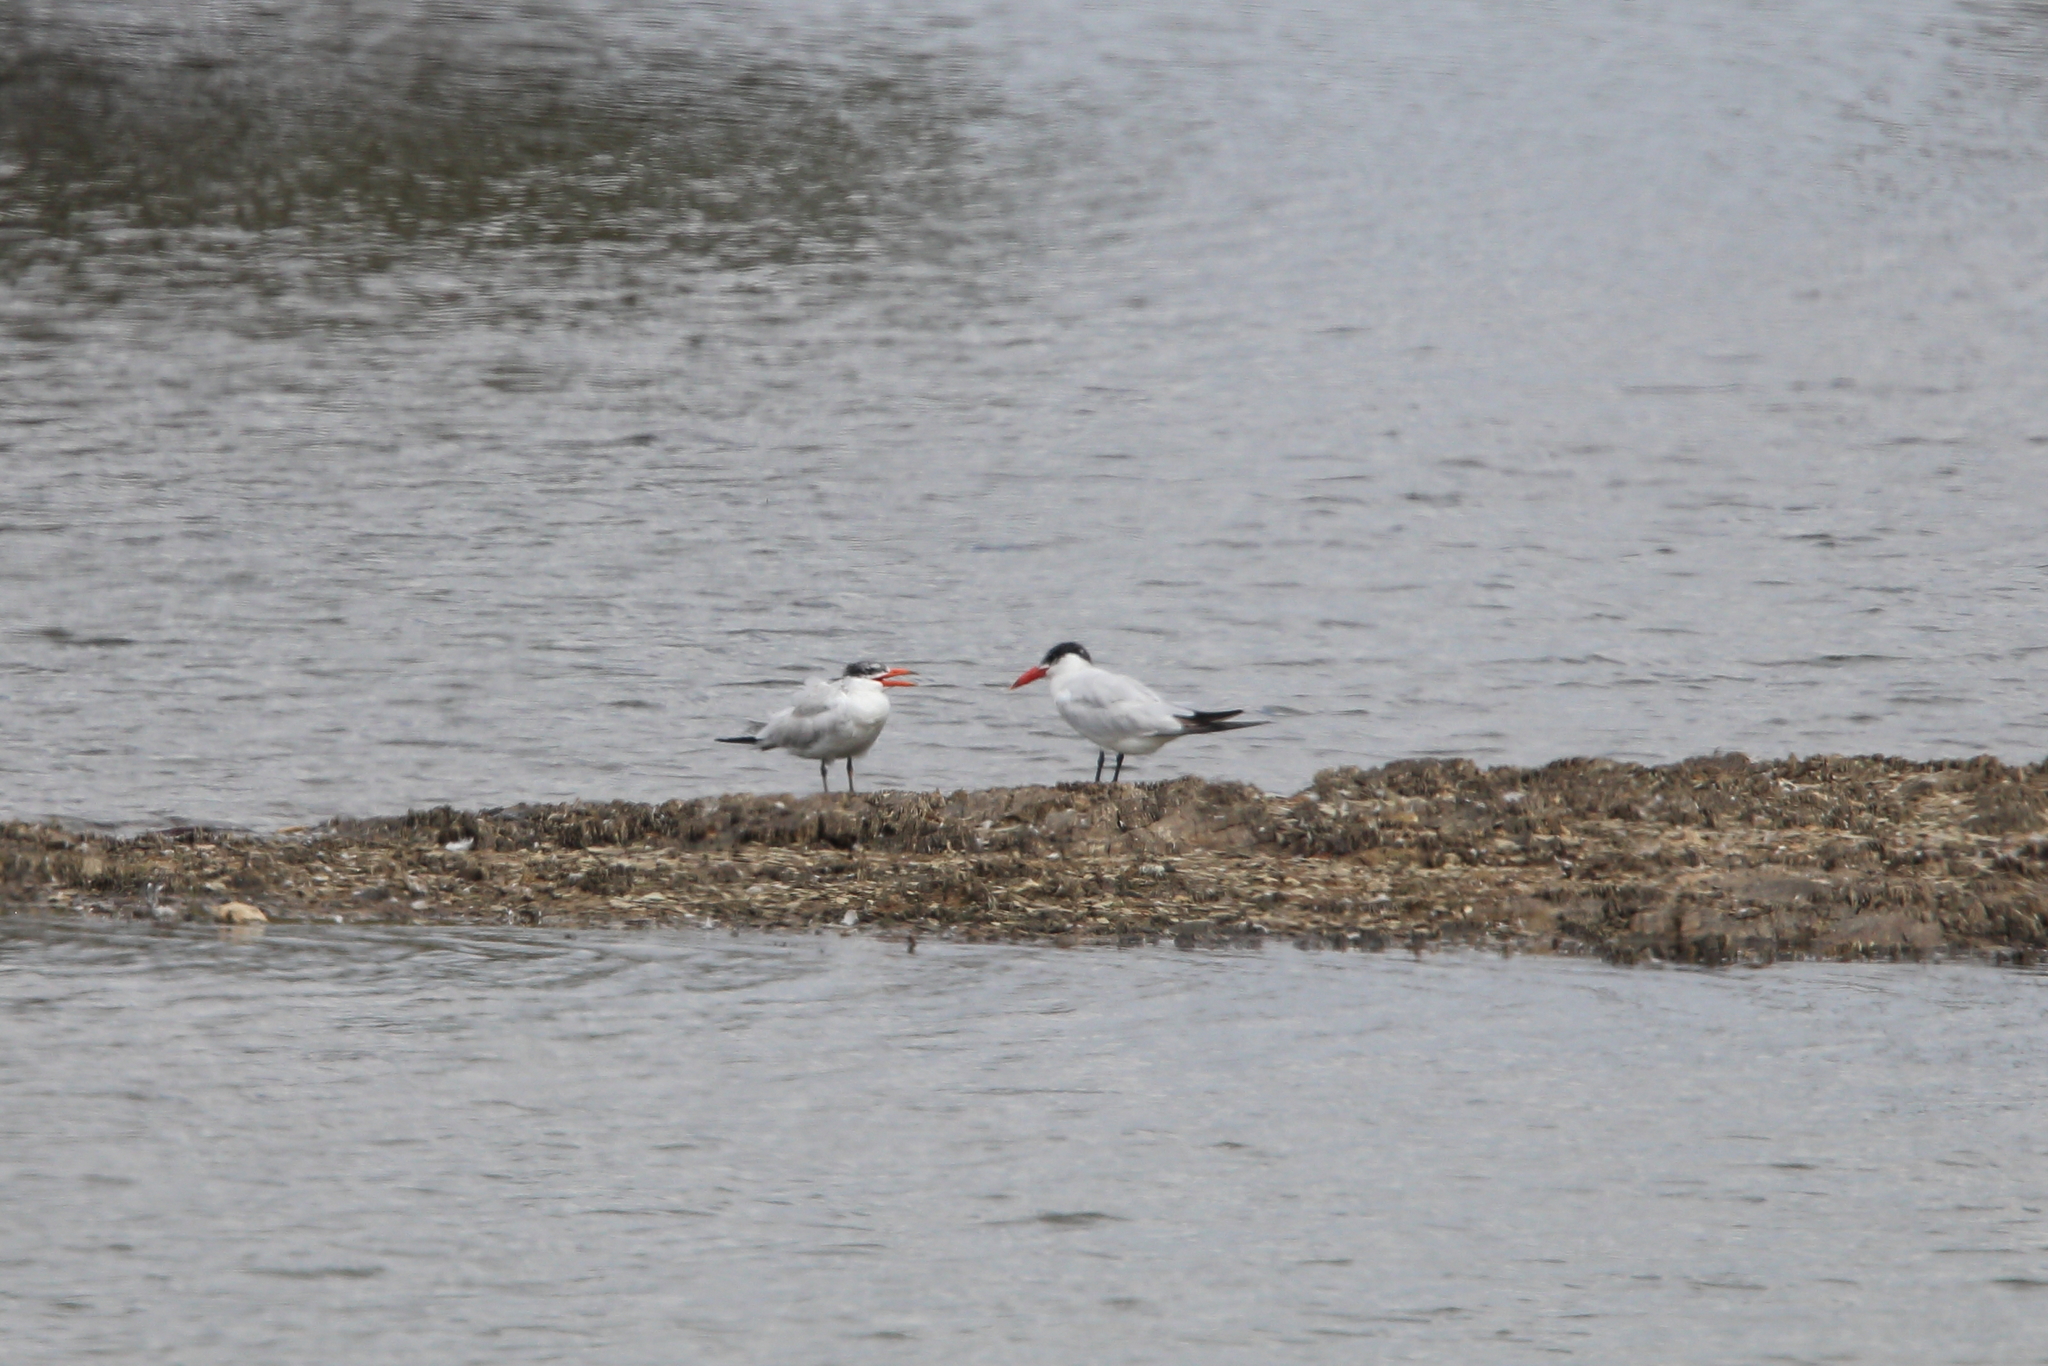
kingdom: Animalia
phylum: Chordata
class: Aves
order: Charadriiformes
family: Laridae
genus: Hydroprogne
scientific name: Hydroprogne caspia
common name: Caspian tern
